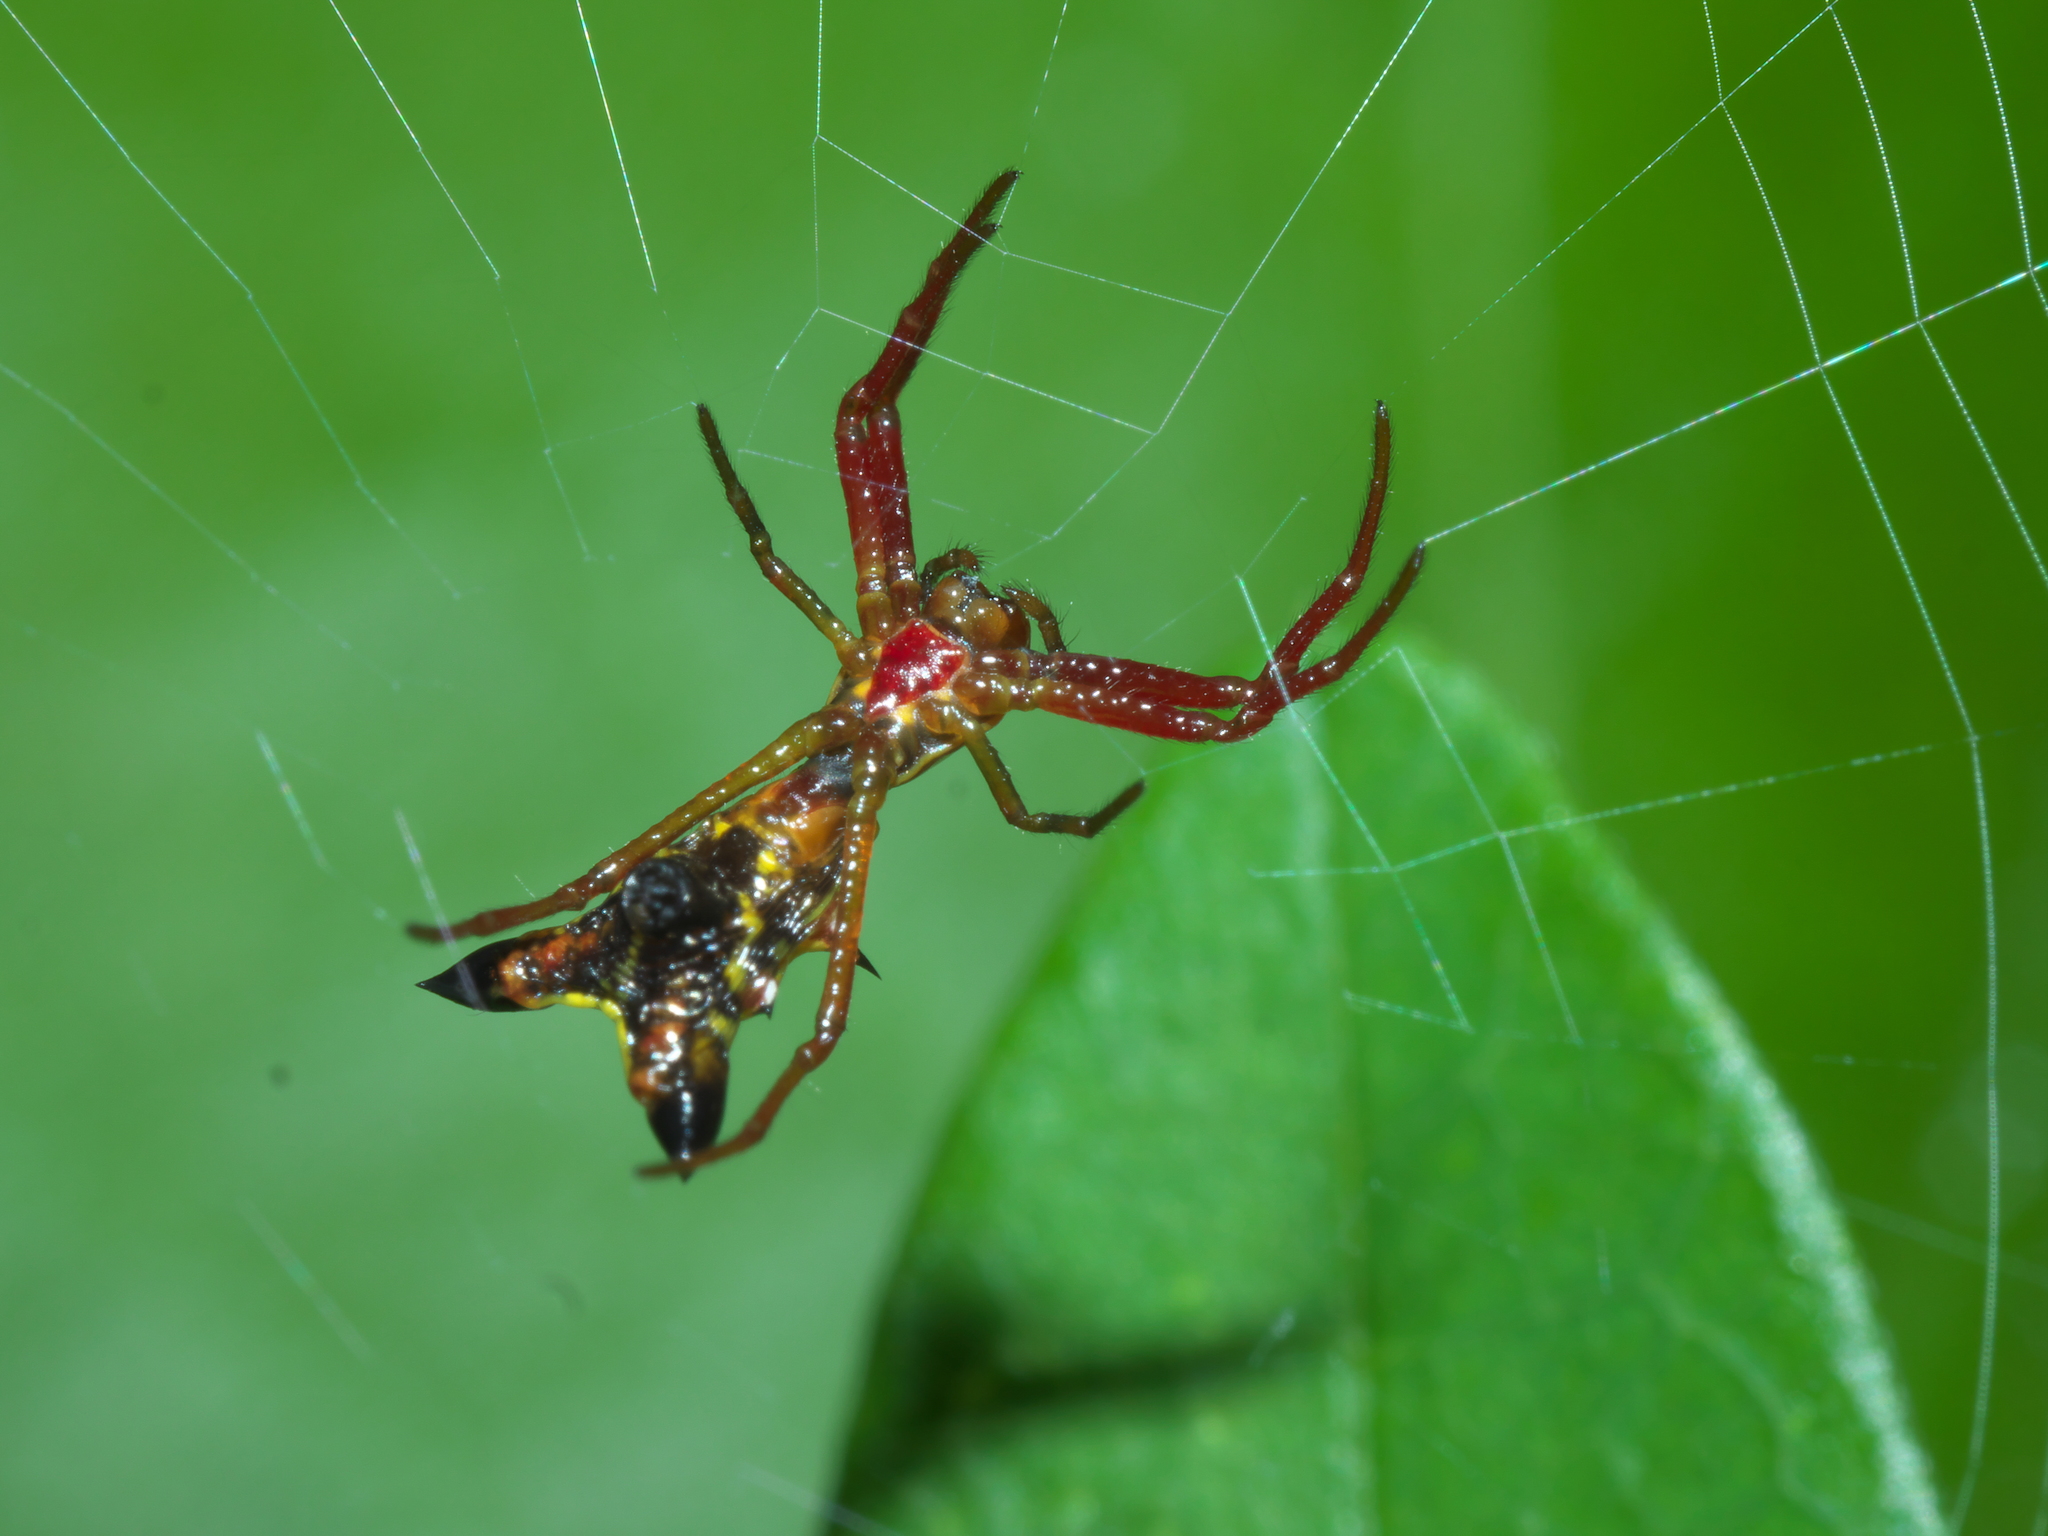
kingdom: Animalia
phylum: Arthropoda
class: Arachnida
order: Araneae
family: Araneidae
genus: Micrathena
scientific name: Micrathena sagittata
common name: Orb weavers
